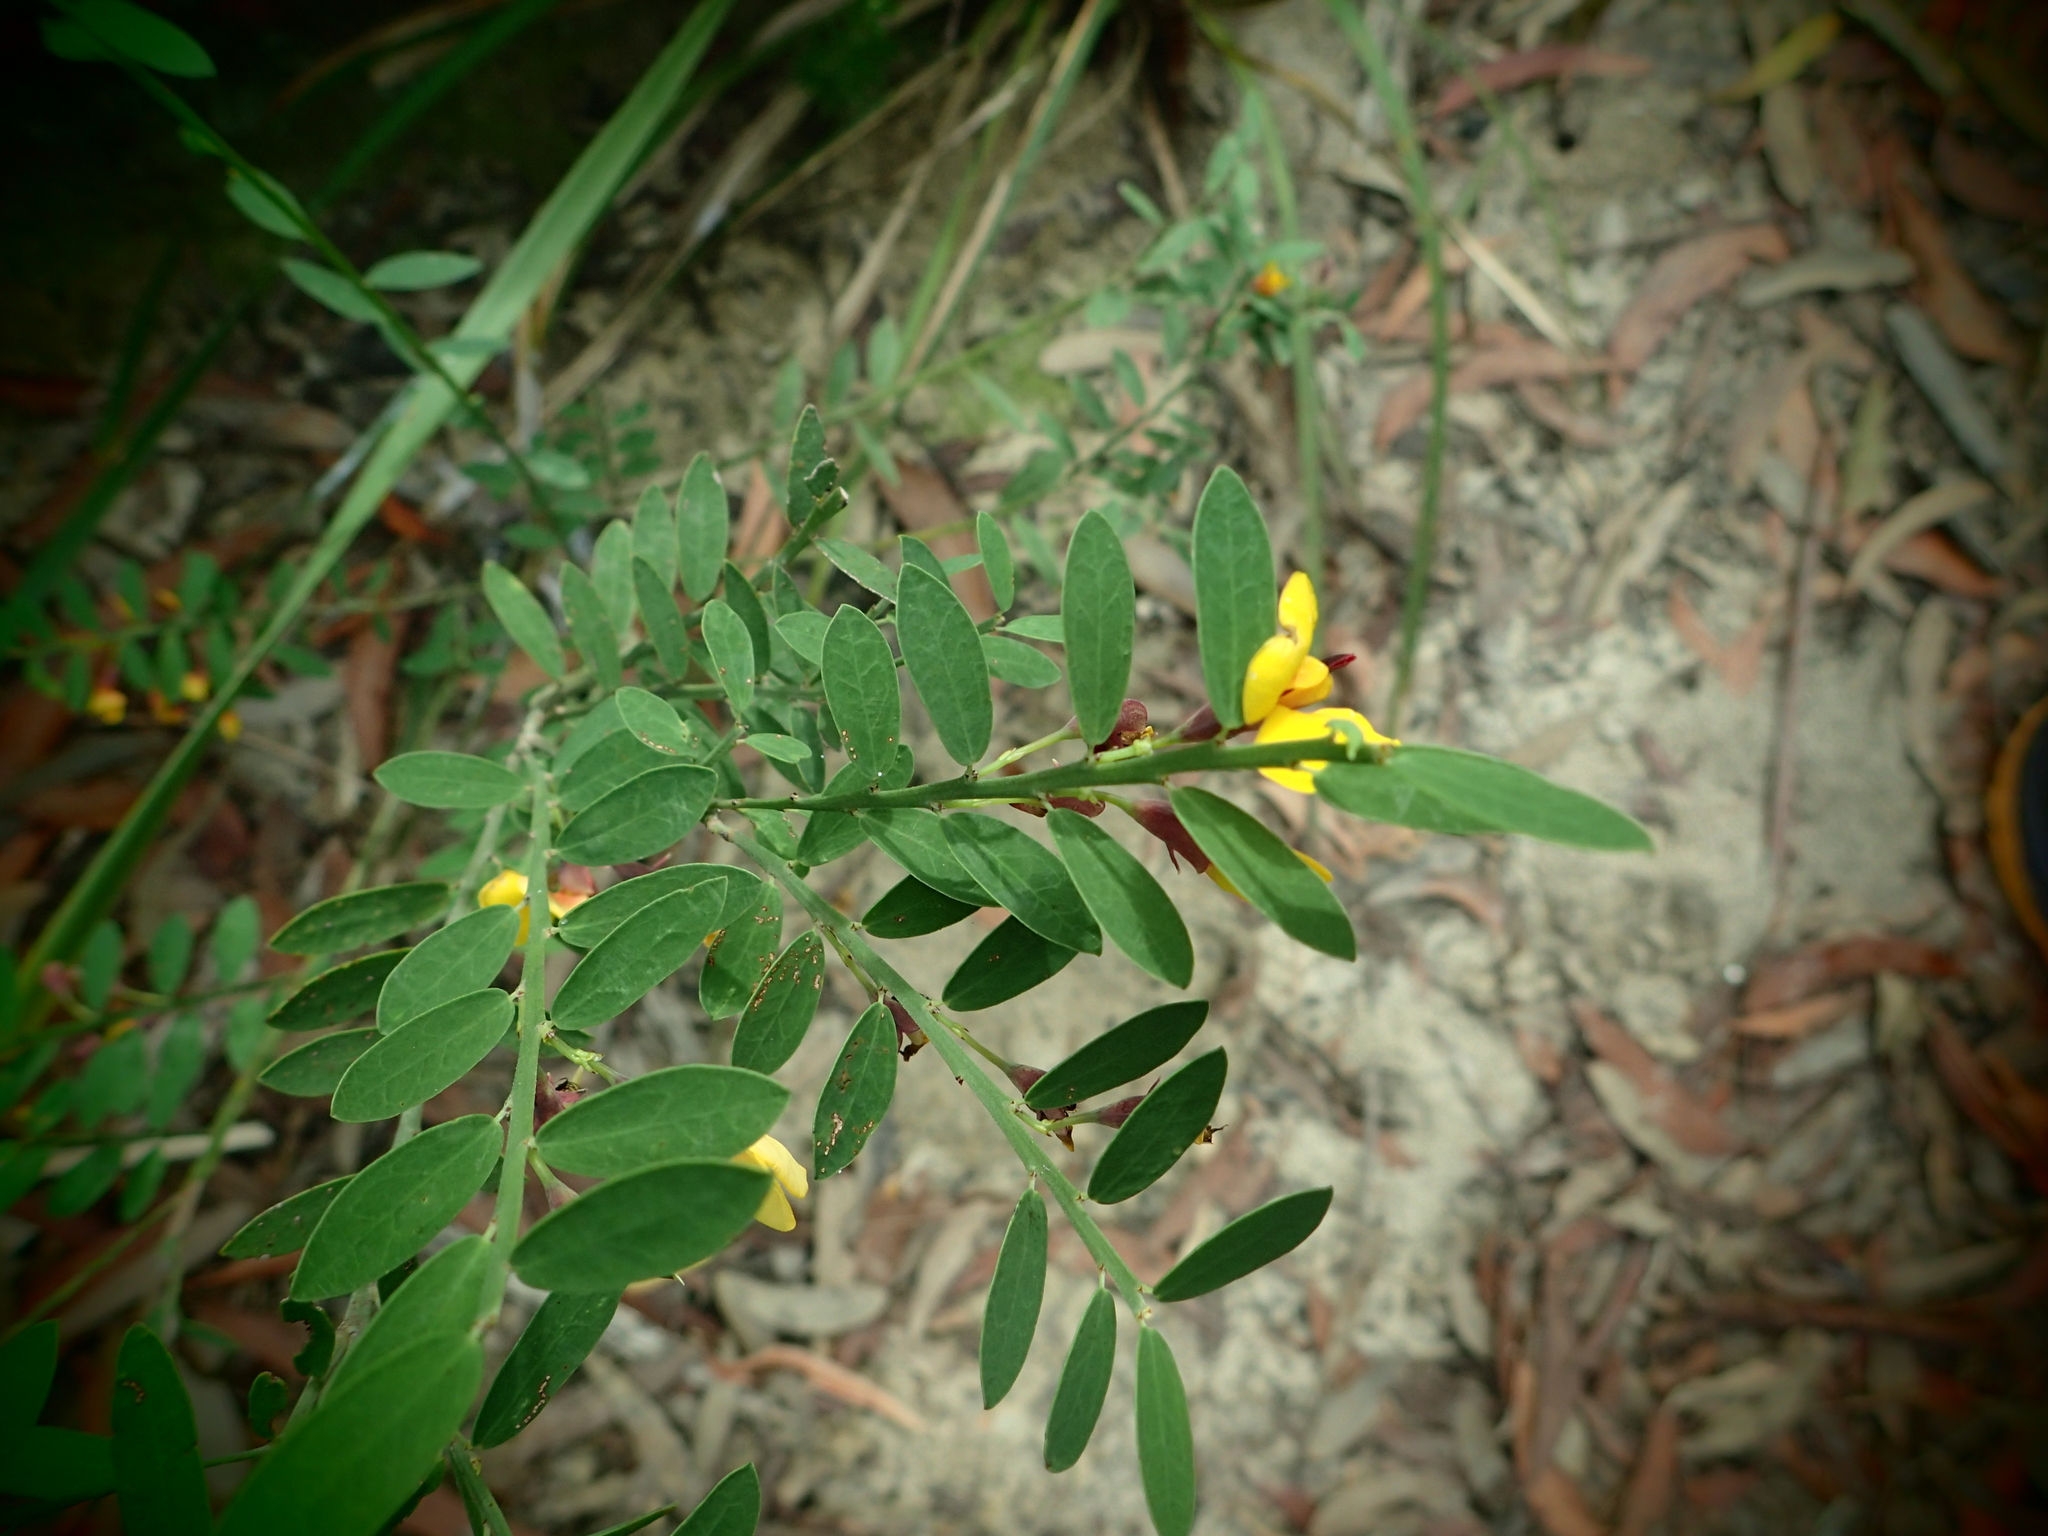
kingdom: Plantae
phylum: Tracheophyta
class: Magnoliopsida
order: Fabales
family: Fabaceae
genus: Bossiaea
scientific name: Bossiaea heterophylla
